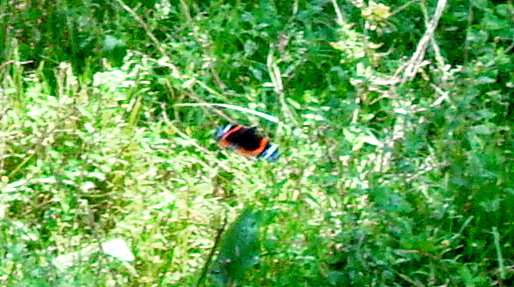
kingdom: Animalia
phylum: Arthropoda
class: Insecta
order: Lepidoptera
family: Nymphalidae
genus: Vanessa
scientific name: Vanessa atalanta
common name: Red admiral
